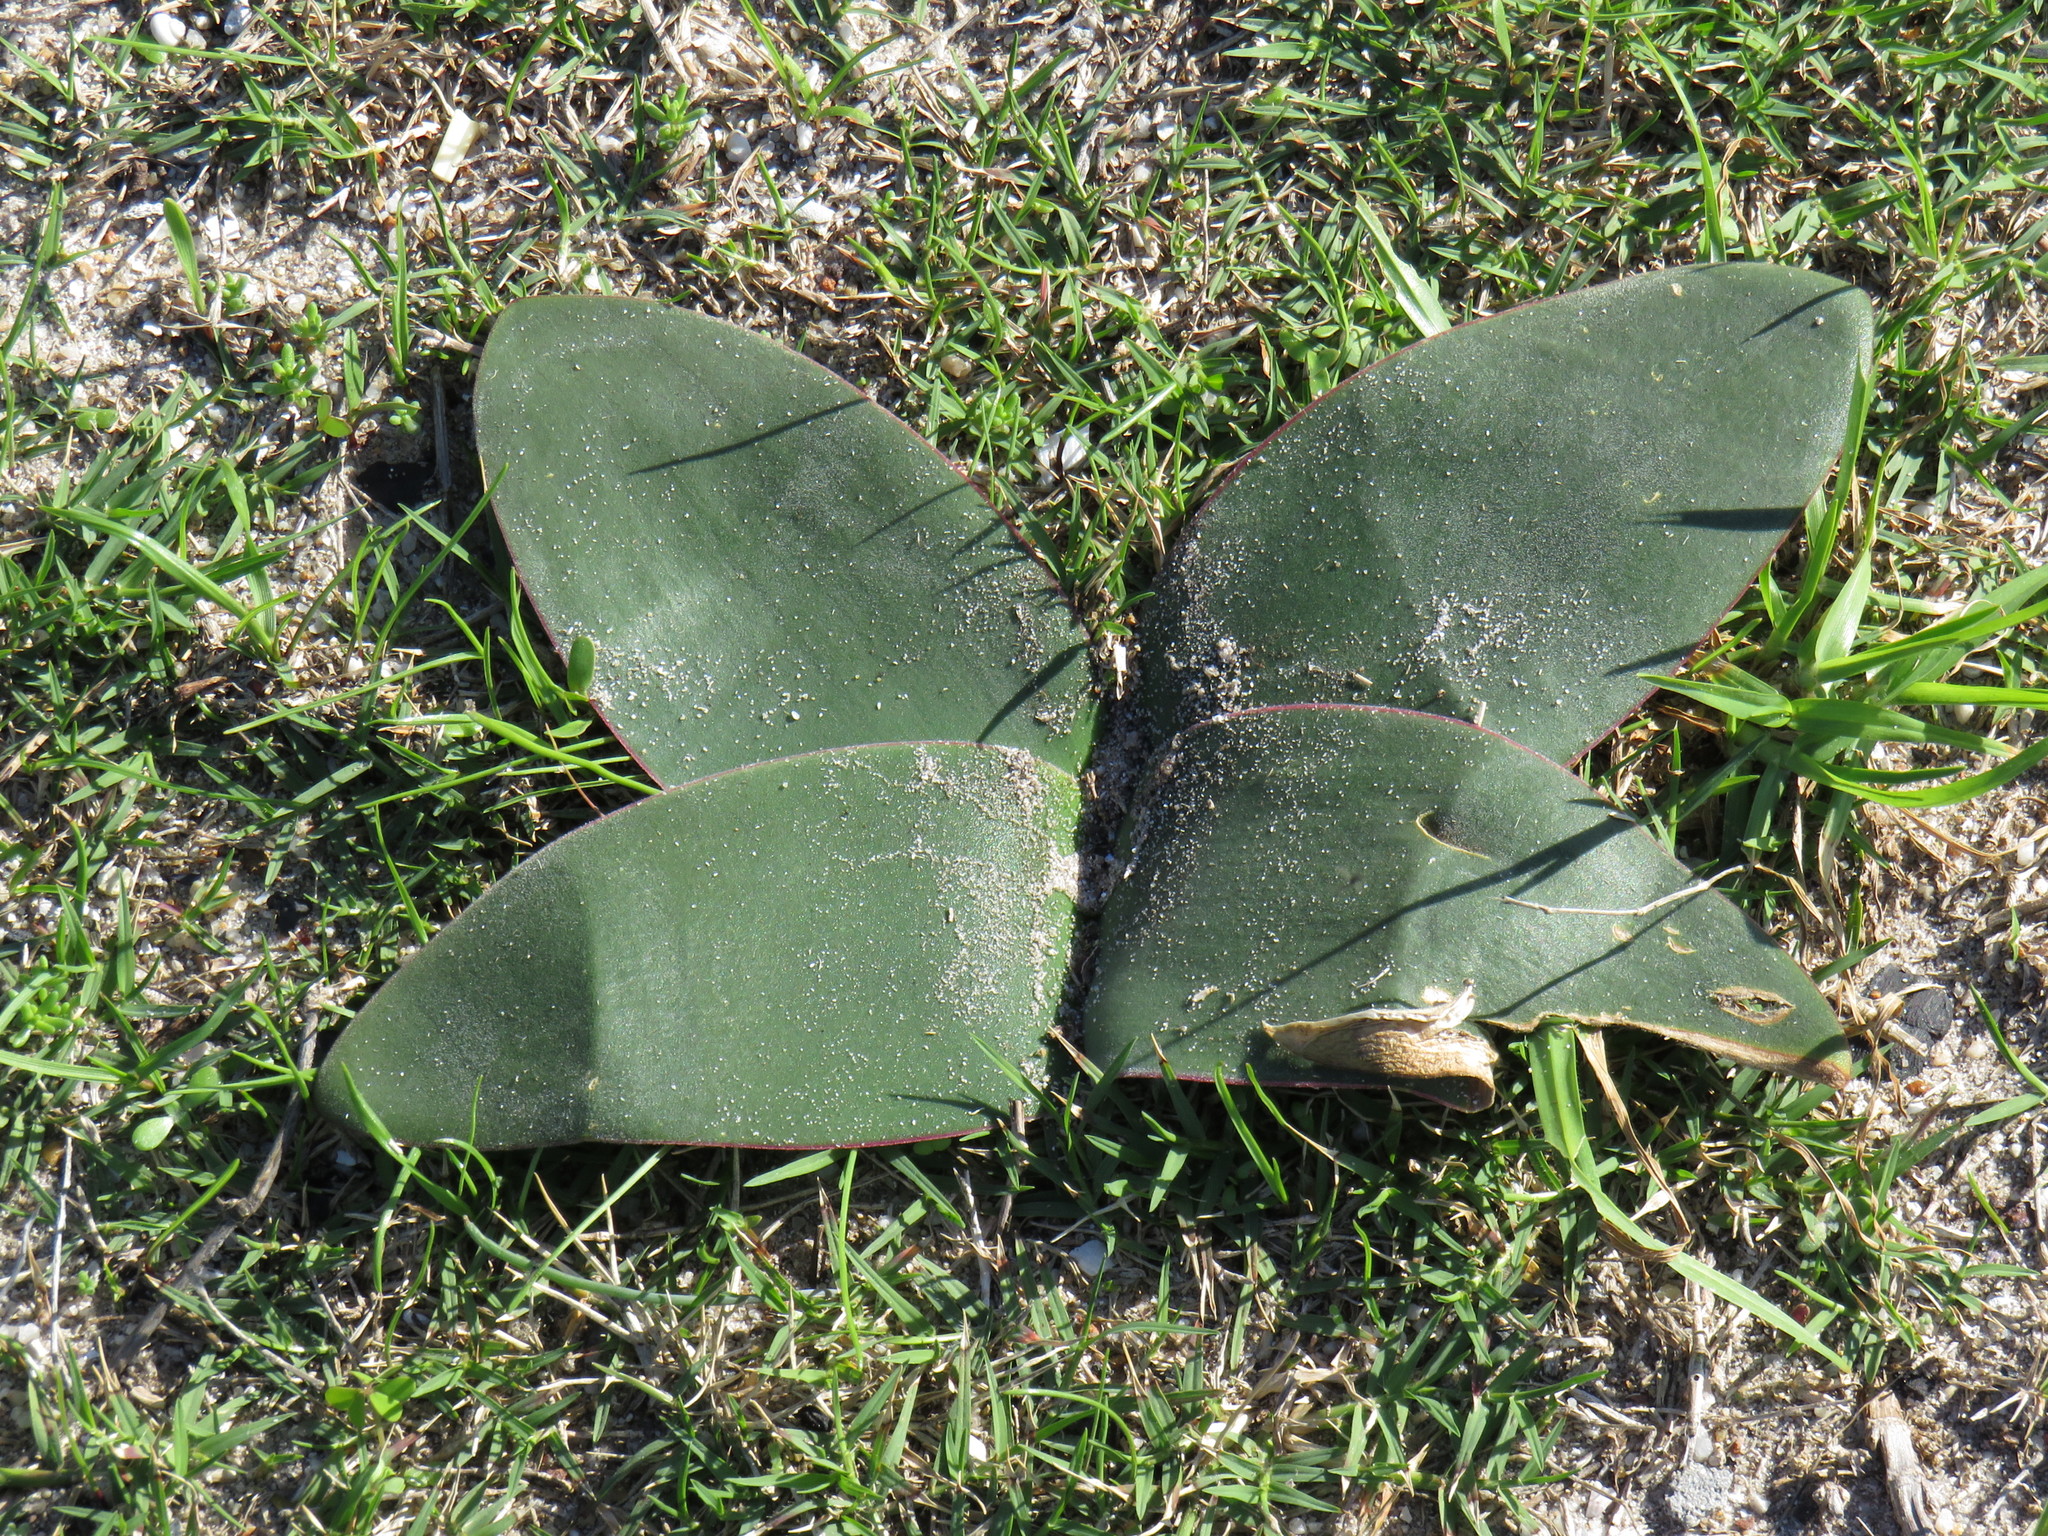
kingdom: Plantae
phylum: Tracheophyta
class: Liliopsida
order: Asparagales
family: Amaryllidaceae
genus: Brunsvigia
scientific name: Brunsvigia orientalis
